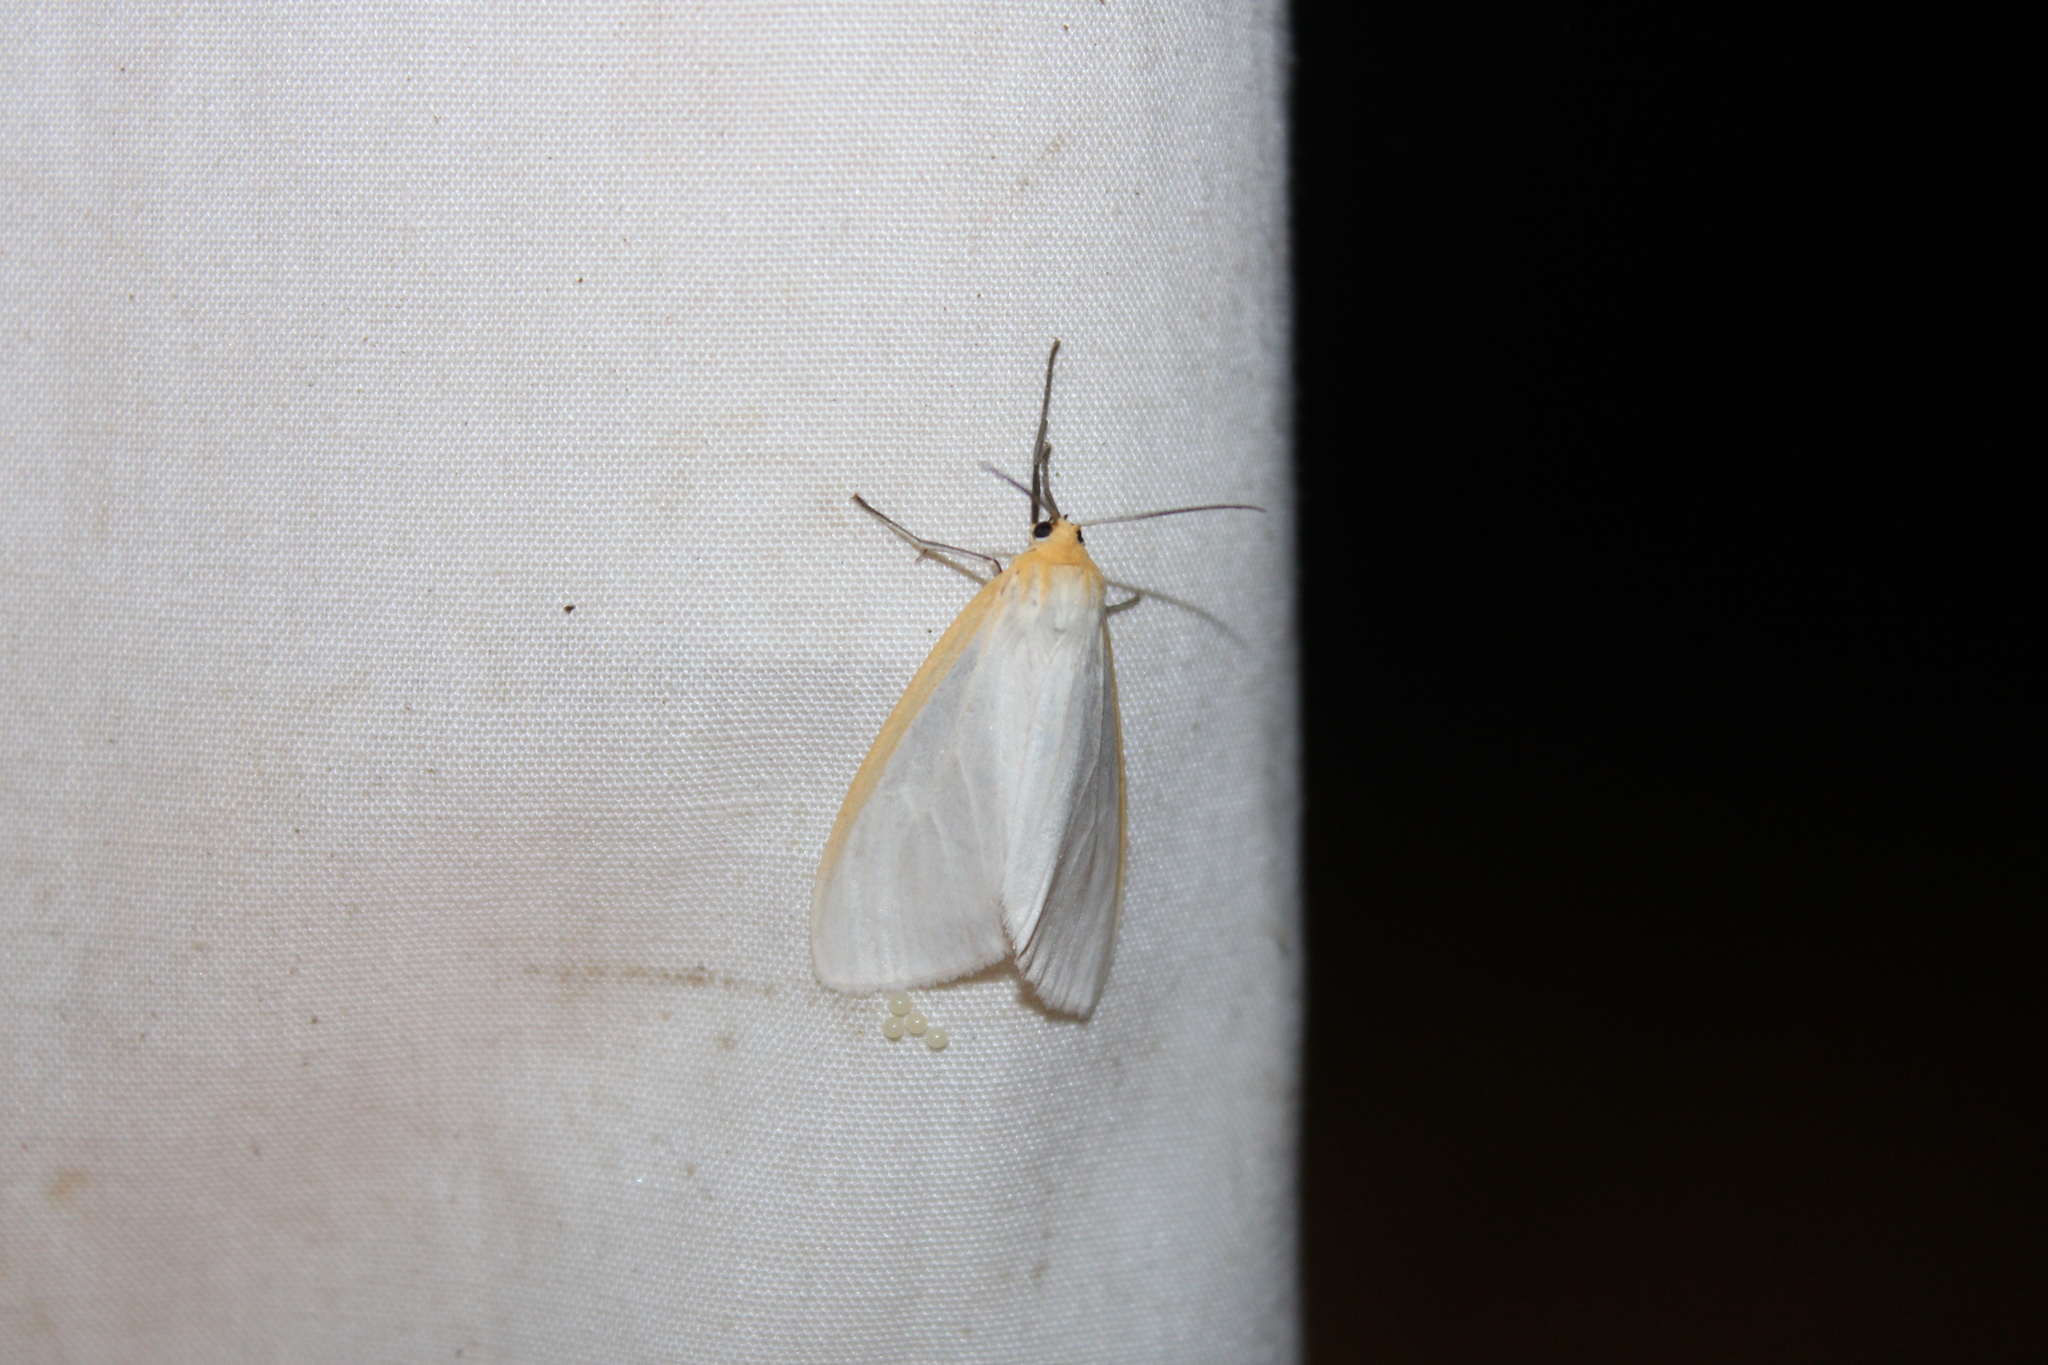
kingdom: Animalia
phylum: Arthropoda
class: Insecta
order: Lepidoptera
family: Erebidae
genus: Cycnia
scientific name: Cycnia tenera
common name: Delicate cycnia moth
